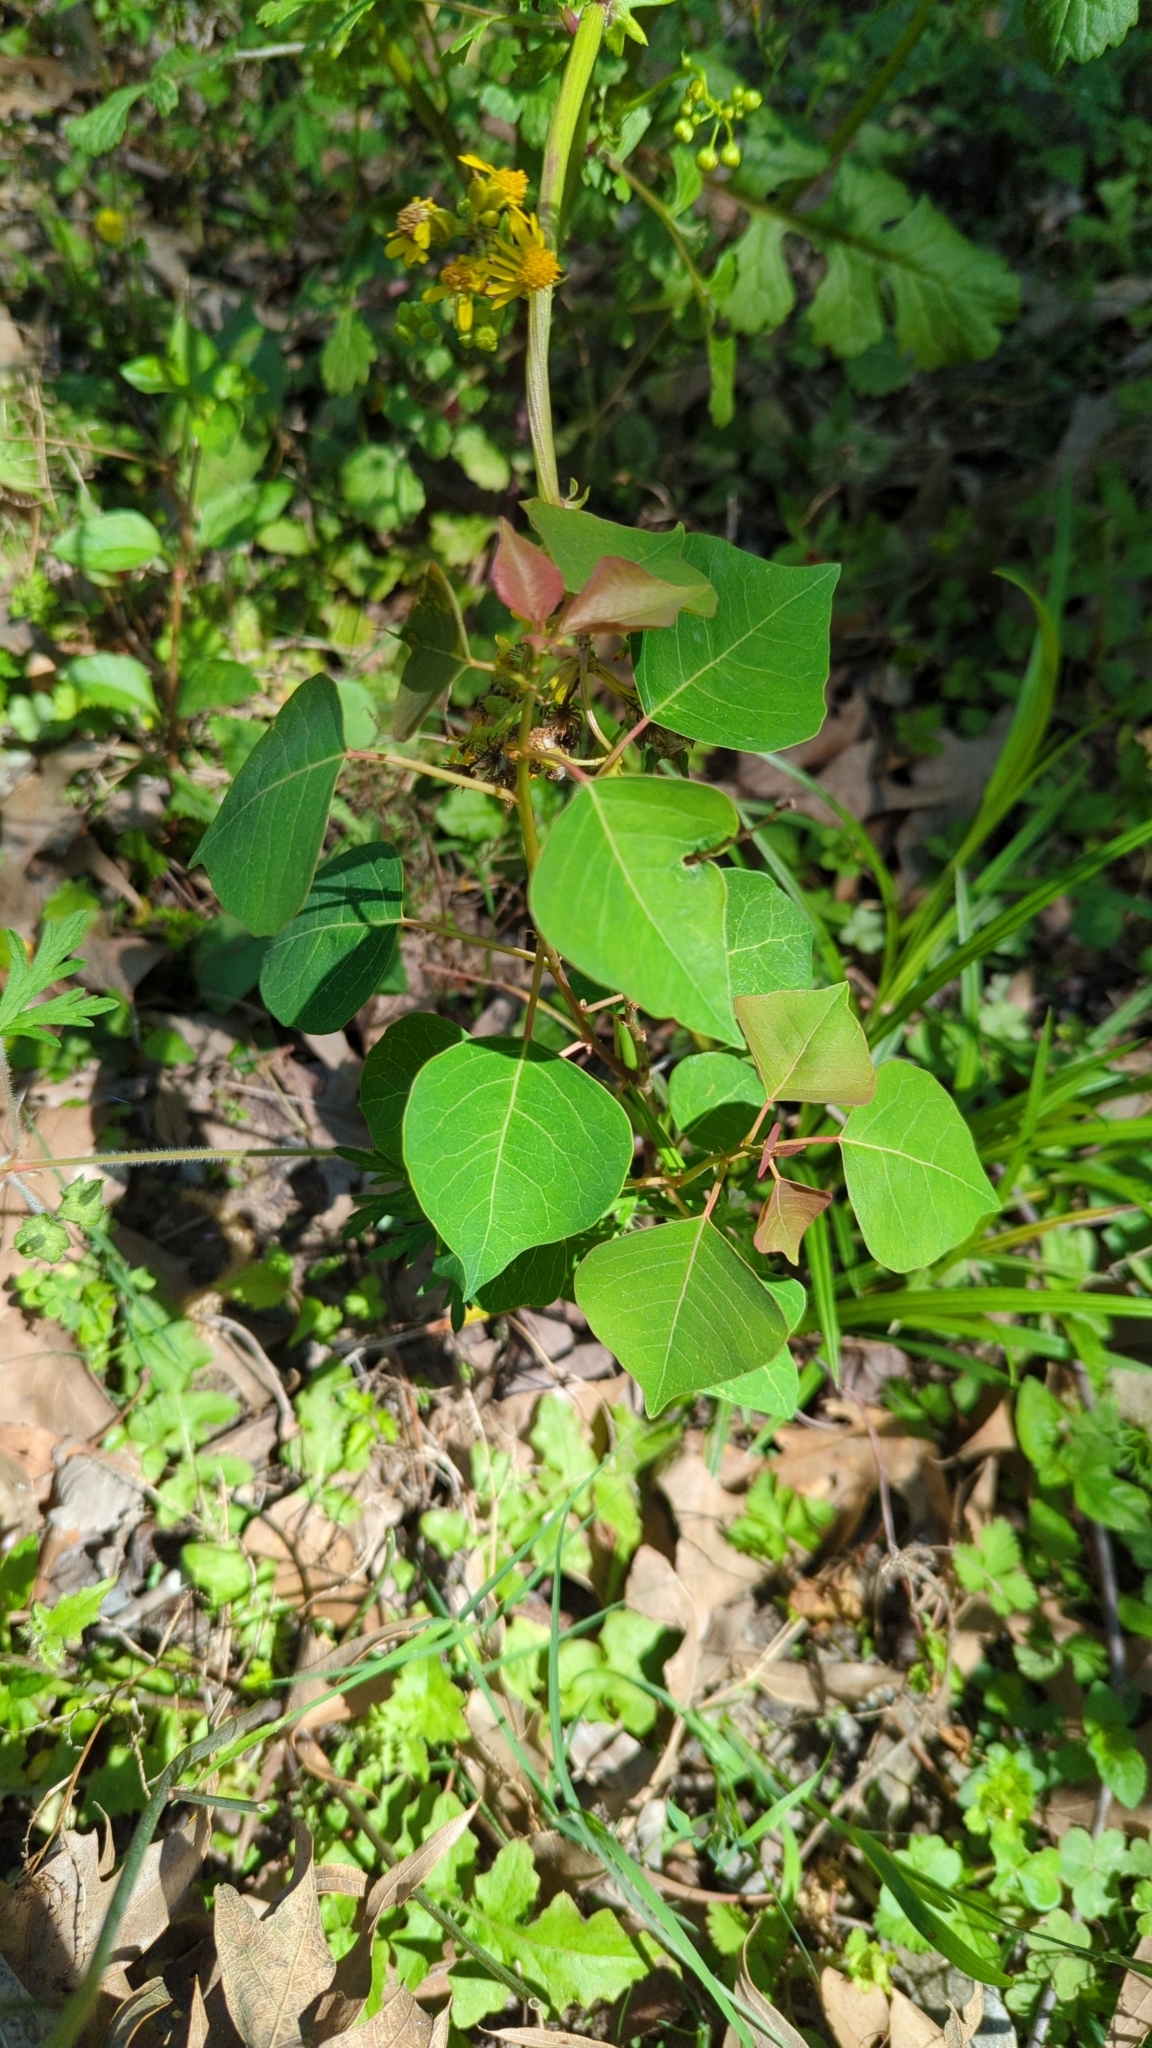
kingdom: Plantae
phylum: Tracheophyta
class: Magnoliopsida
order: Malpighiales
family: Euphorbiaceae
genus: Triadica
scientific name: Triadica sebifera
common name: Chinese tallow
